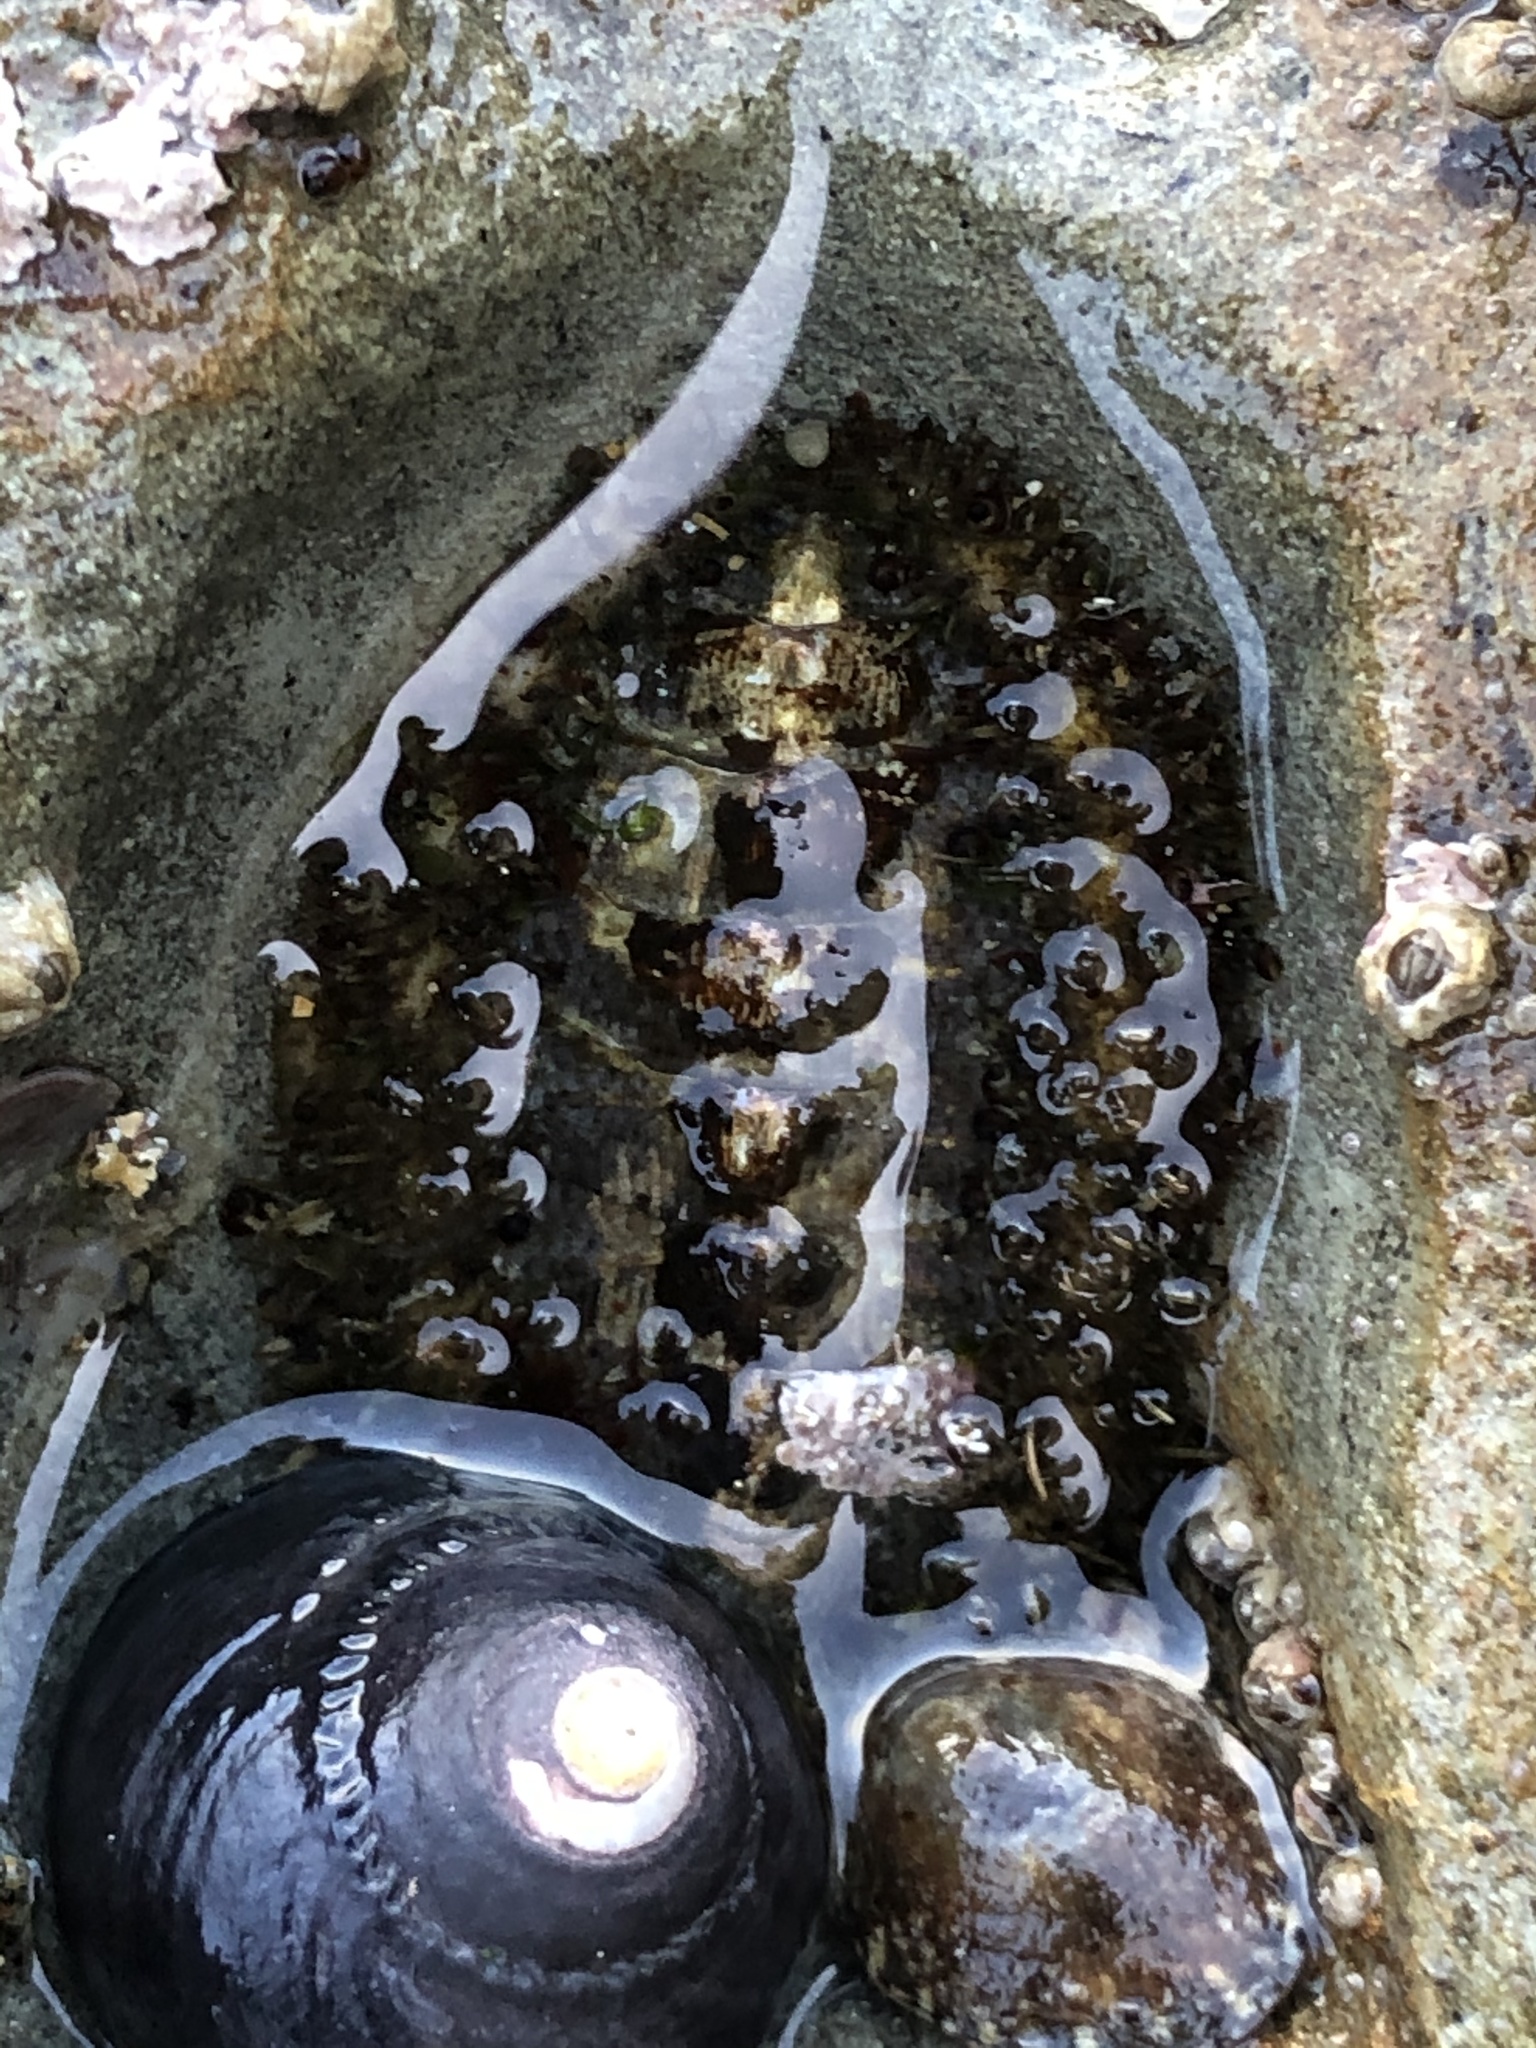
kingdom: Animalia
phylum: Mollusca
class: Polyplacophora
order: Chitonida
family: Mopaliidae
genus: Mopalia
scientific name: Mopalia muscosa
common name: Mossy chiton
